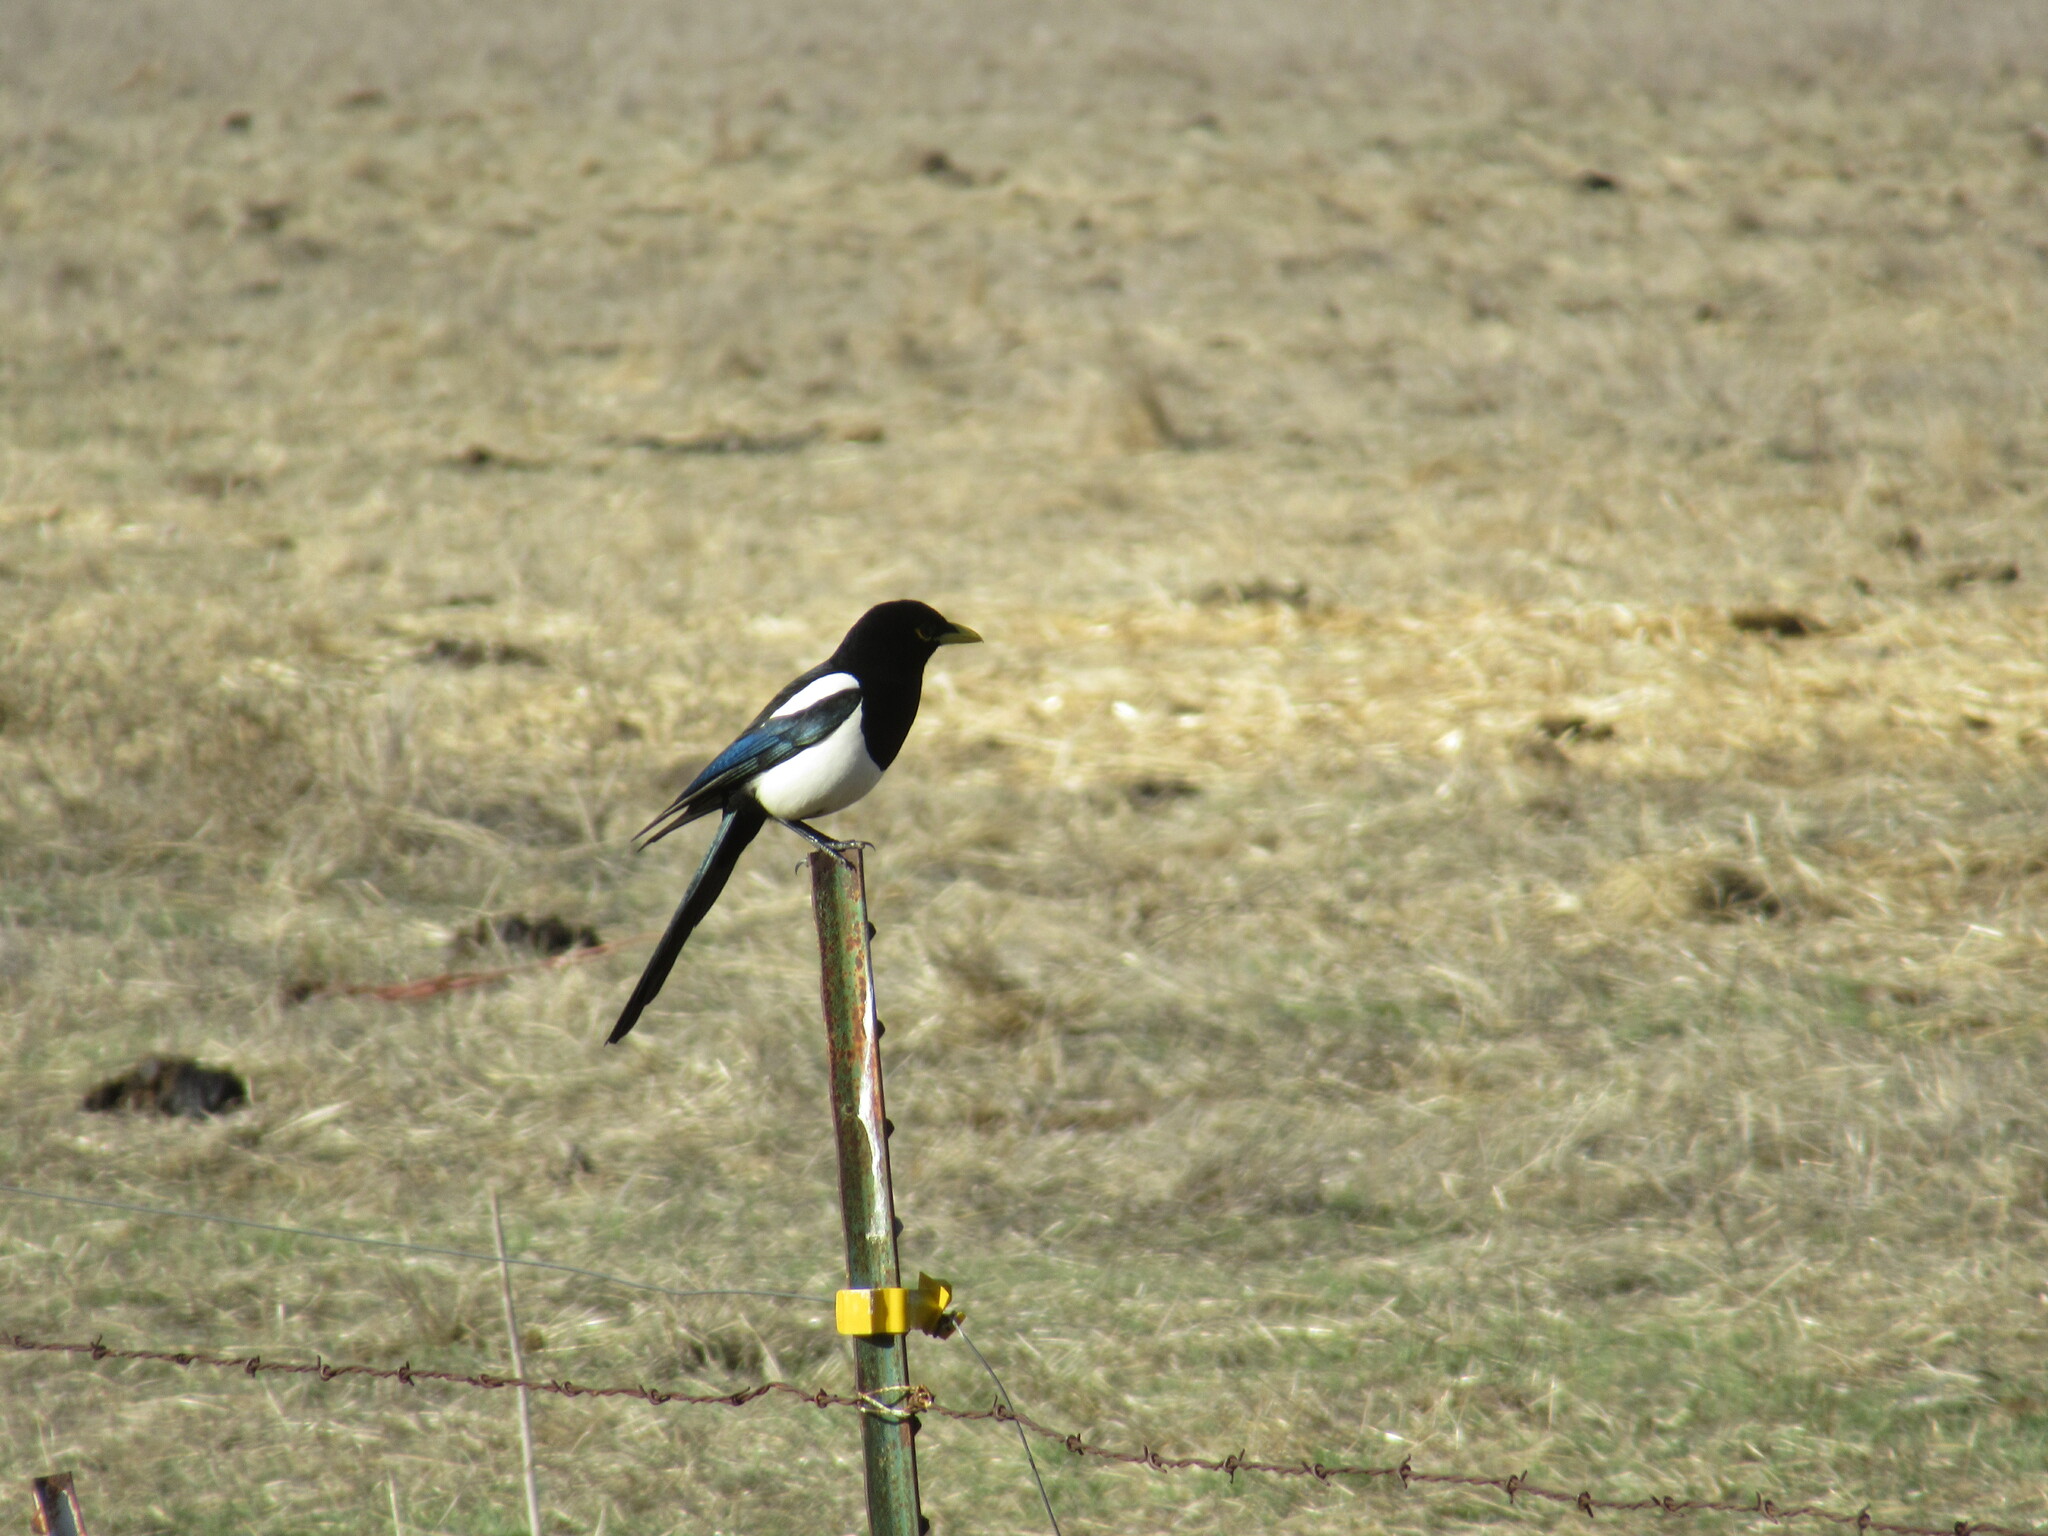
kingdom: Animalia
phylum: Chordata
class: Aves
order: Passeriformes
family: Corvidae
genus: Pica
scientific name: Pica nuttalli
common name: Yellow-billed magpie
